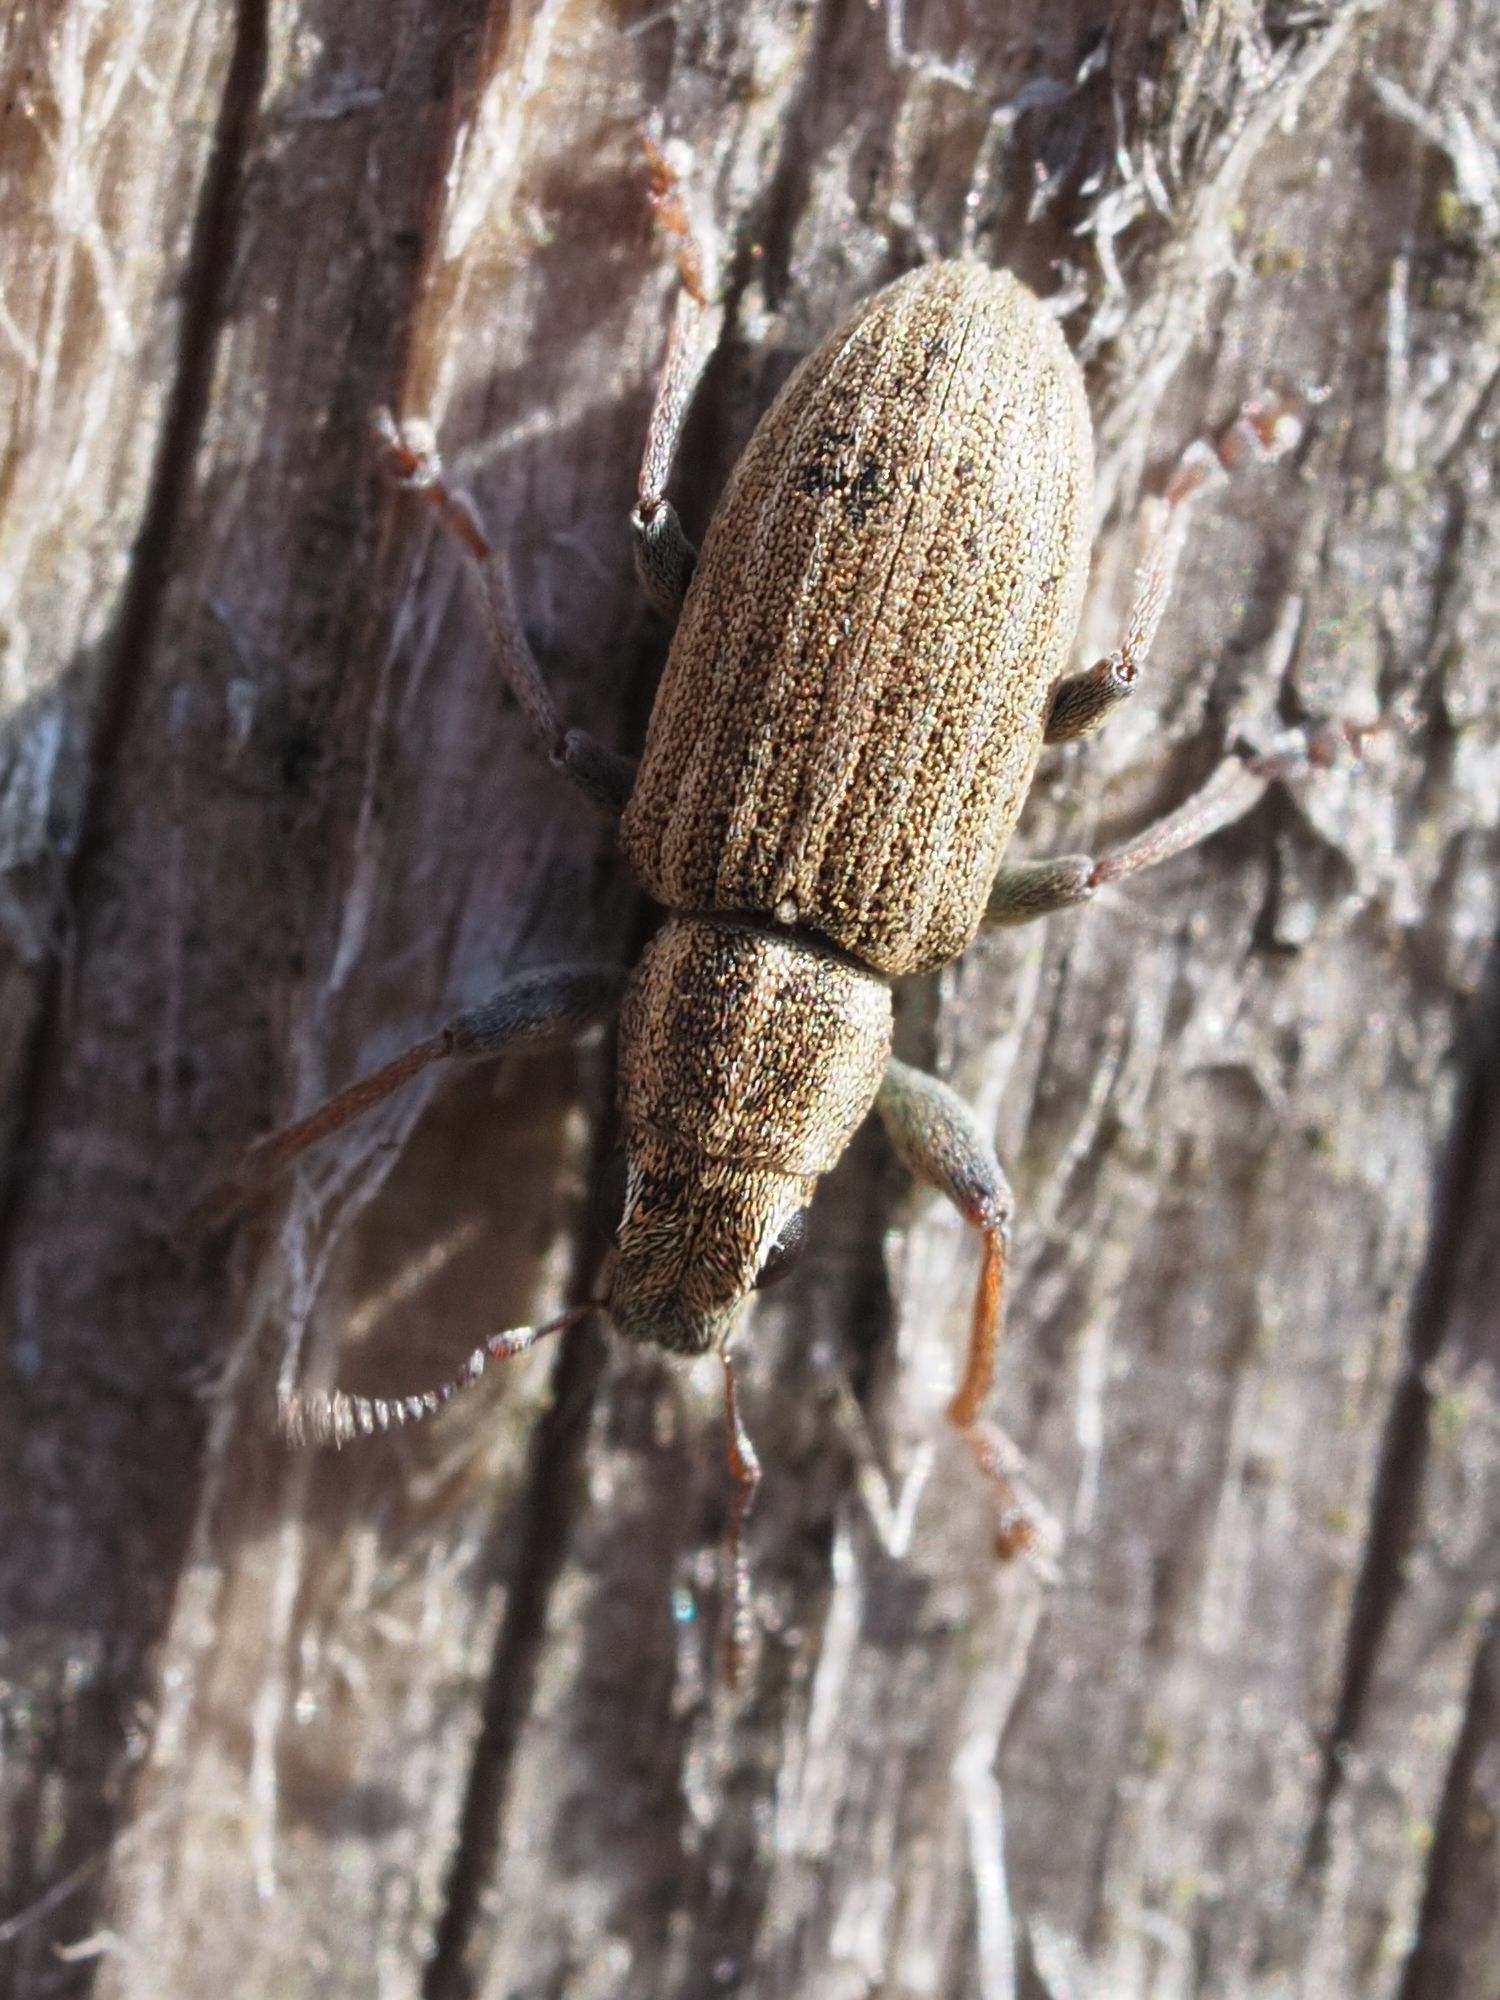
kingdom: Animalia
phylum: Arthropoda
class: Insecta
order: Coleoptera
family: Curculionidae
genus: Sitona
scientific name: Sitona lineatus
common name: Weevil
